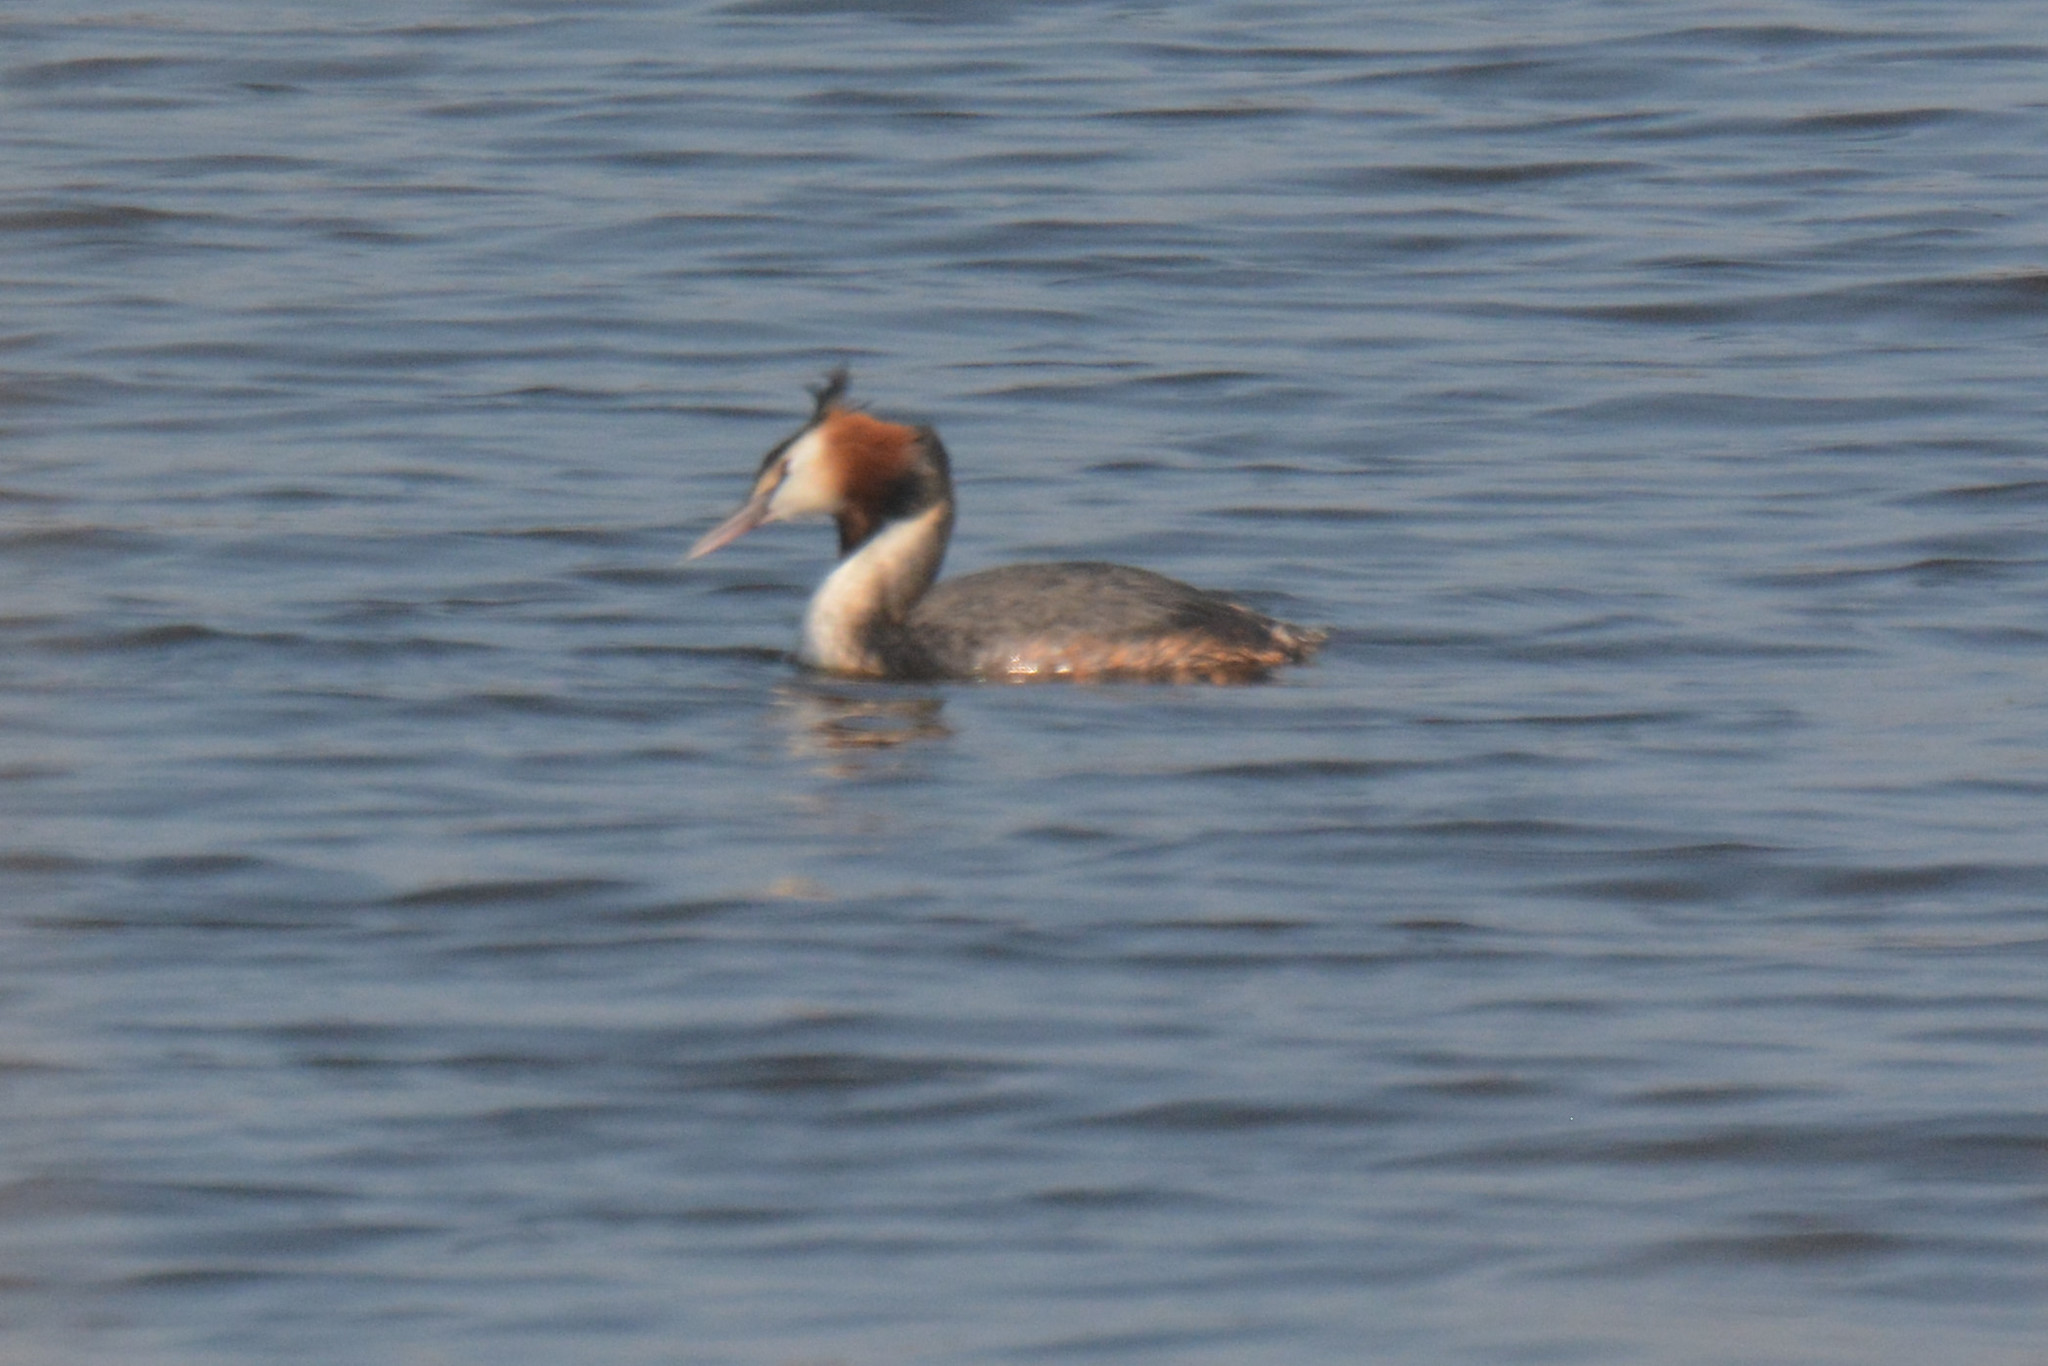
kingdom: Animalia
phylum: Chordata
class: Aves
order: Podicipediformes
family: Podicipedidae
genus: Podiceps
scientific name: Podiceps cristatus
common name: Great crested grebe
